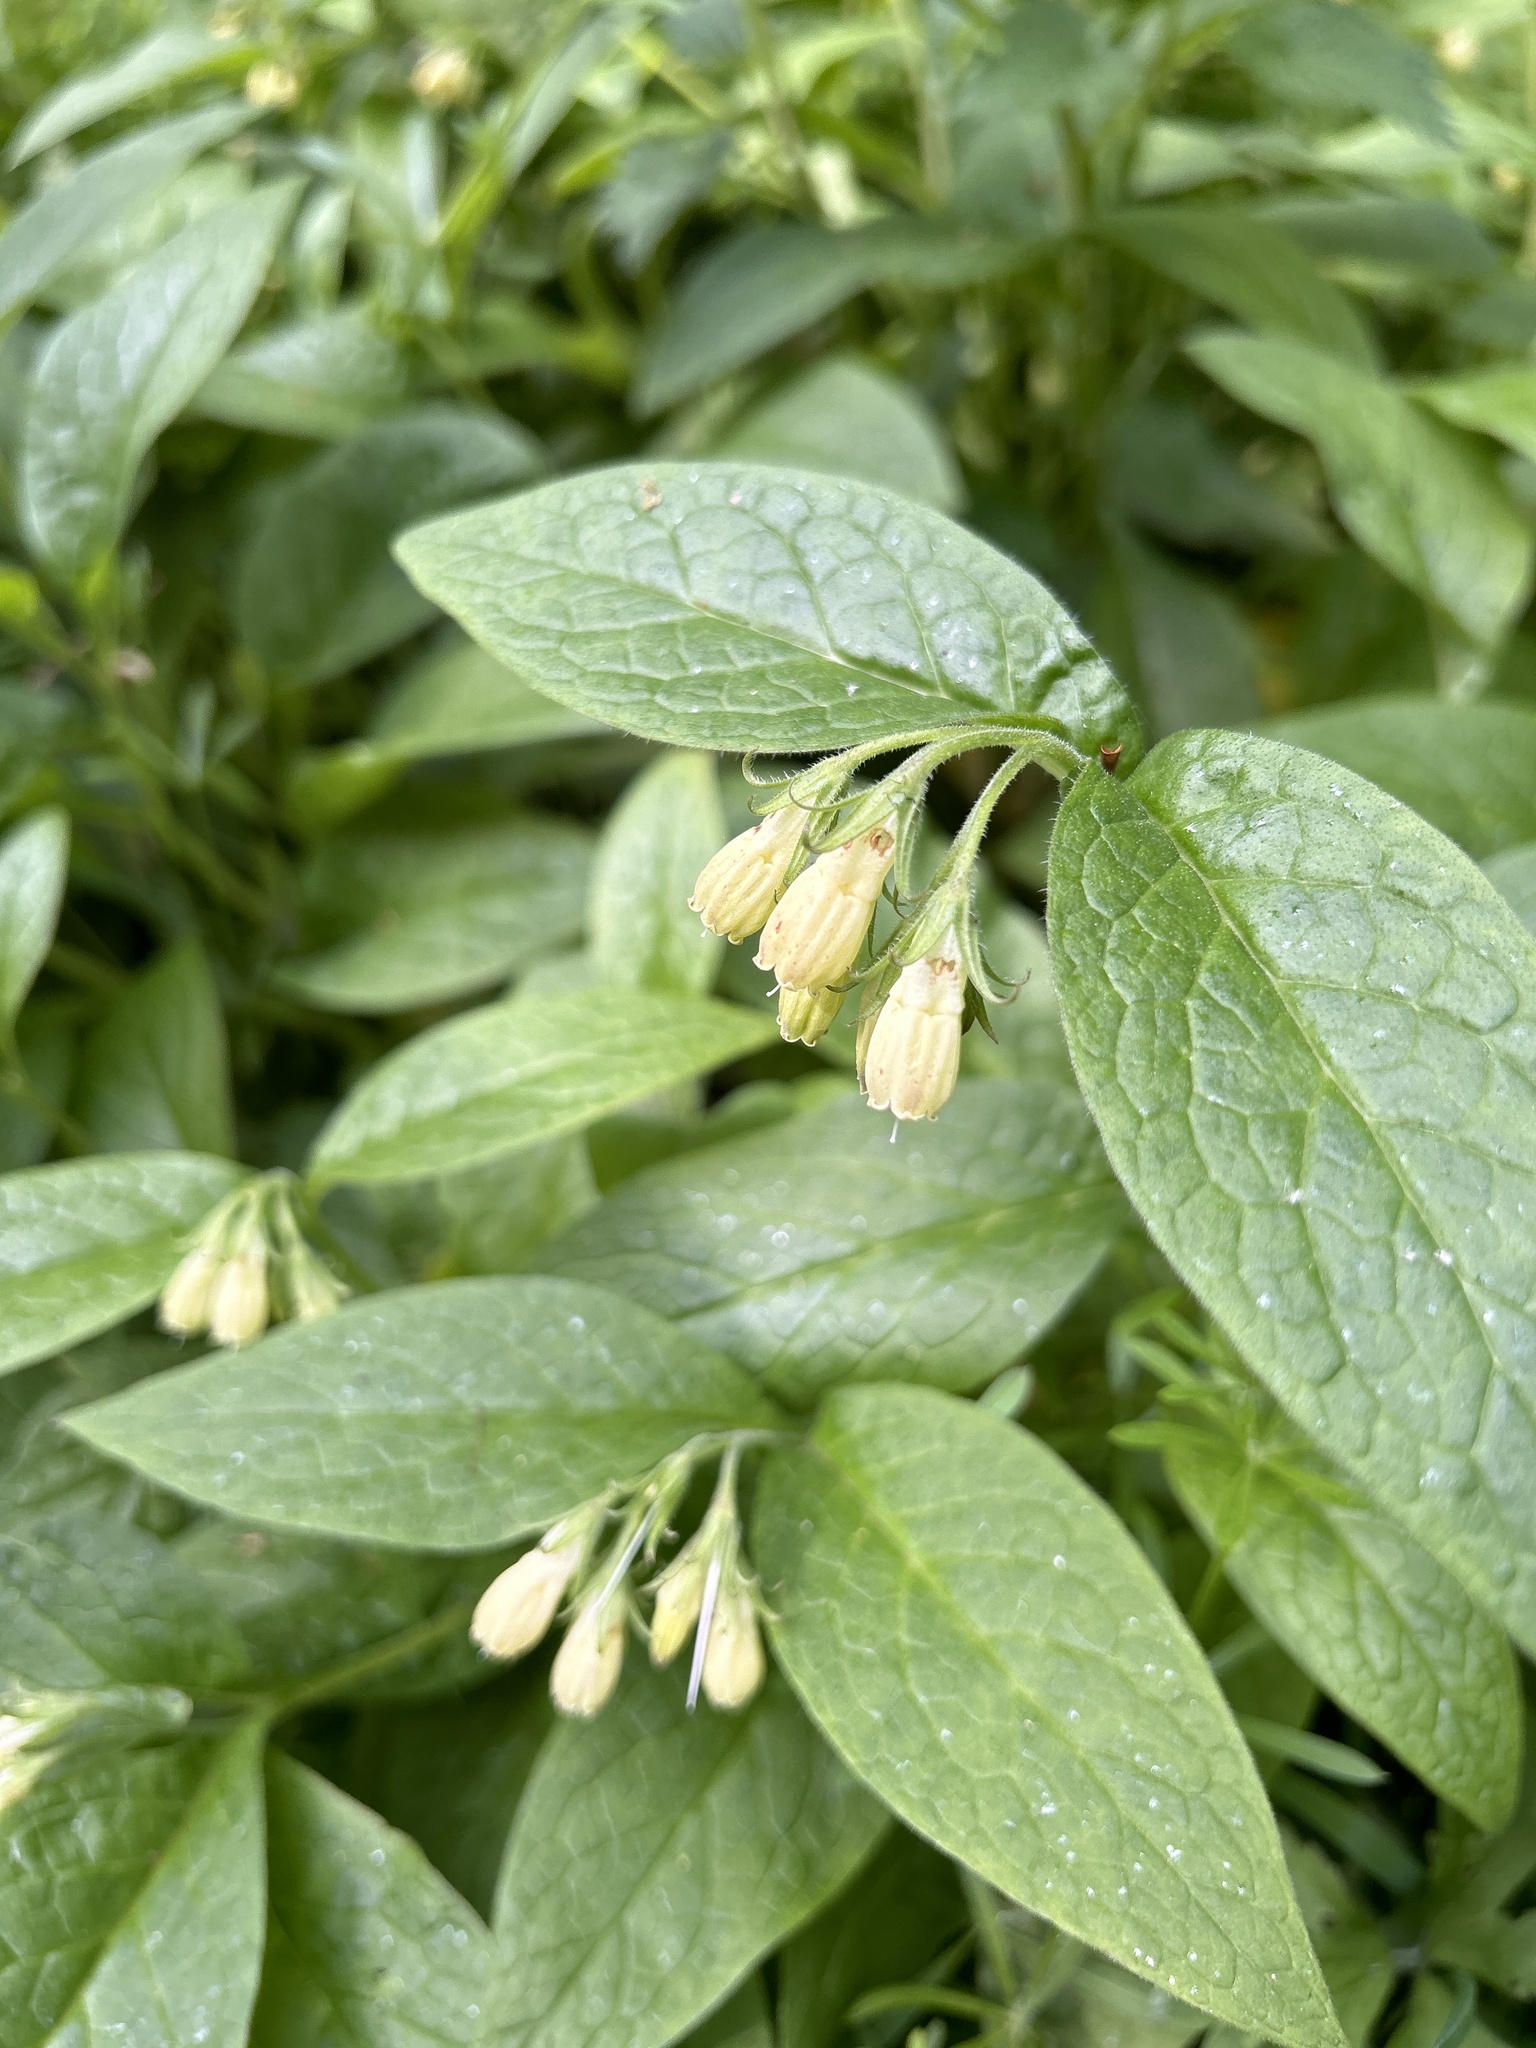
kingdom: Plantae
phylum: Tracheophyta
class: Magnoliopsida
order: Boraginales
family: Boraginaceae
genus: Symphytum
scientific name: Symphytum tuberosum
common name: Tuberous comfrey
